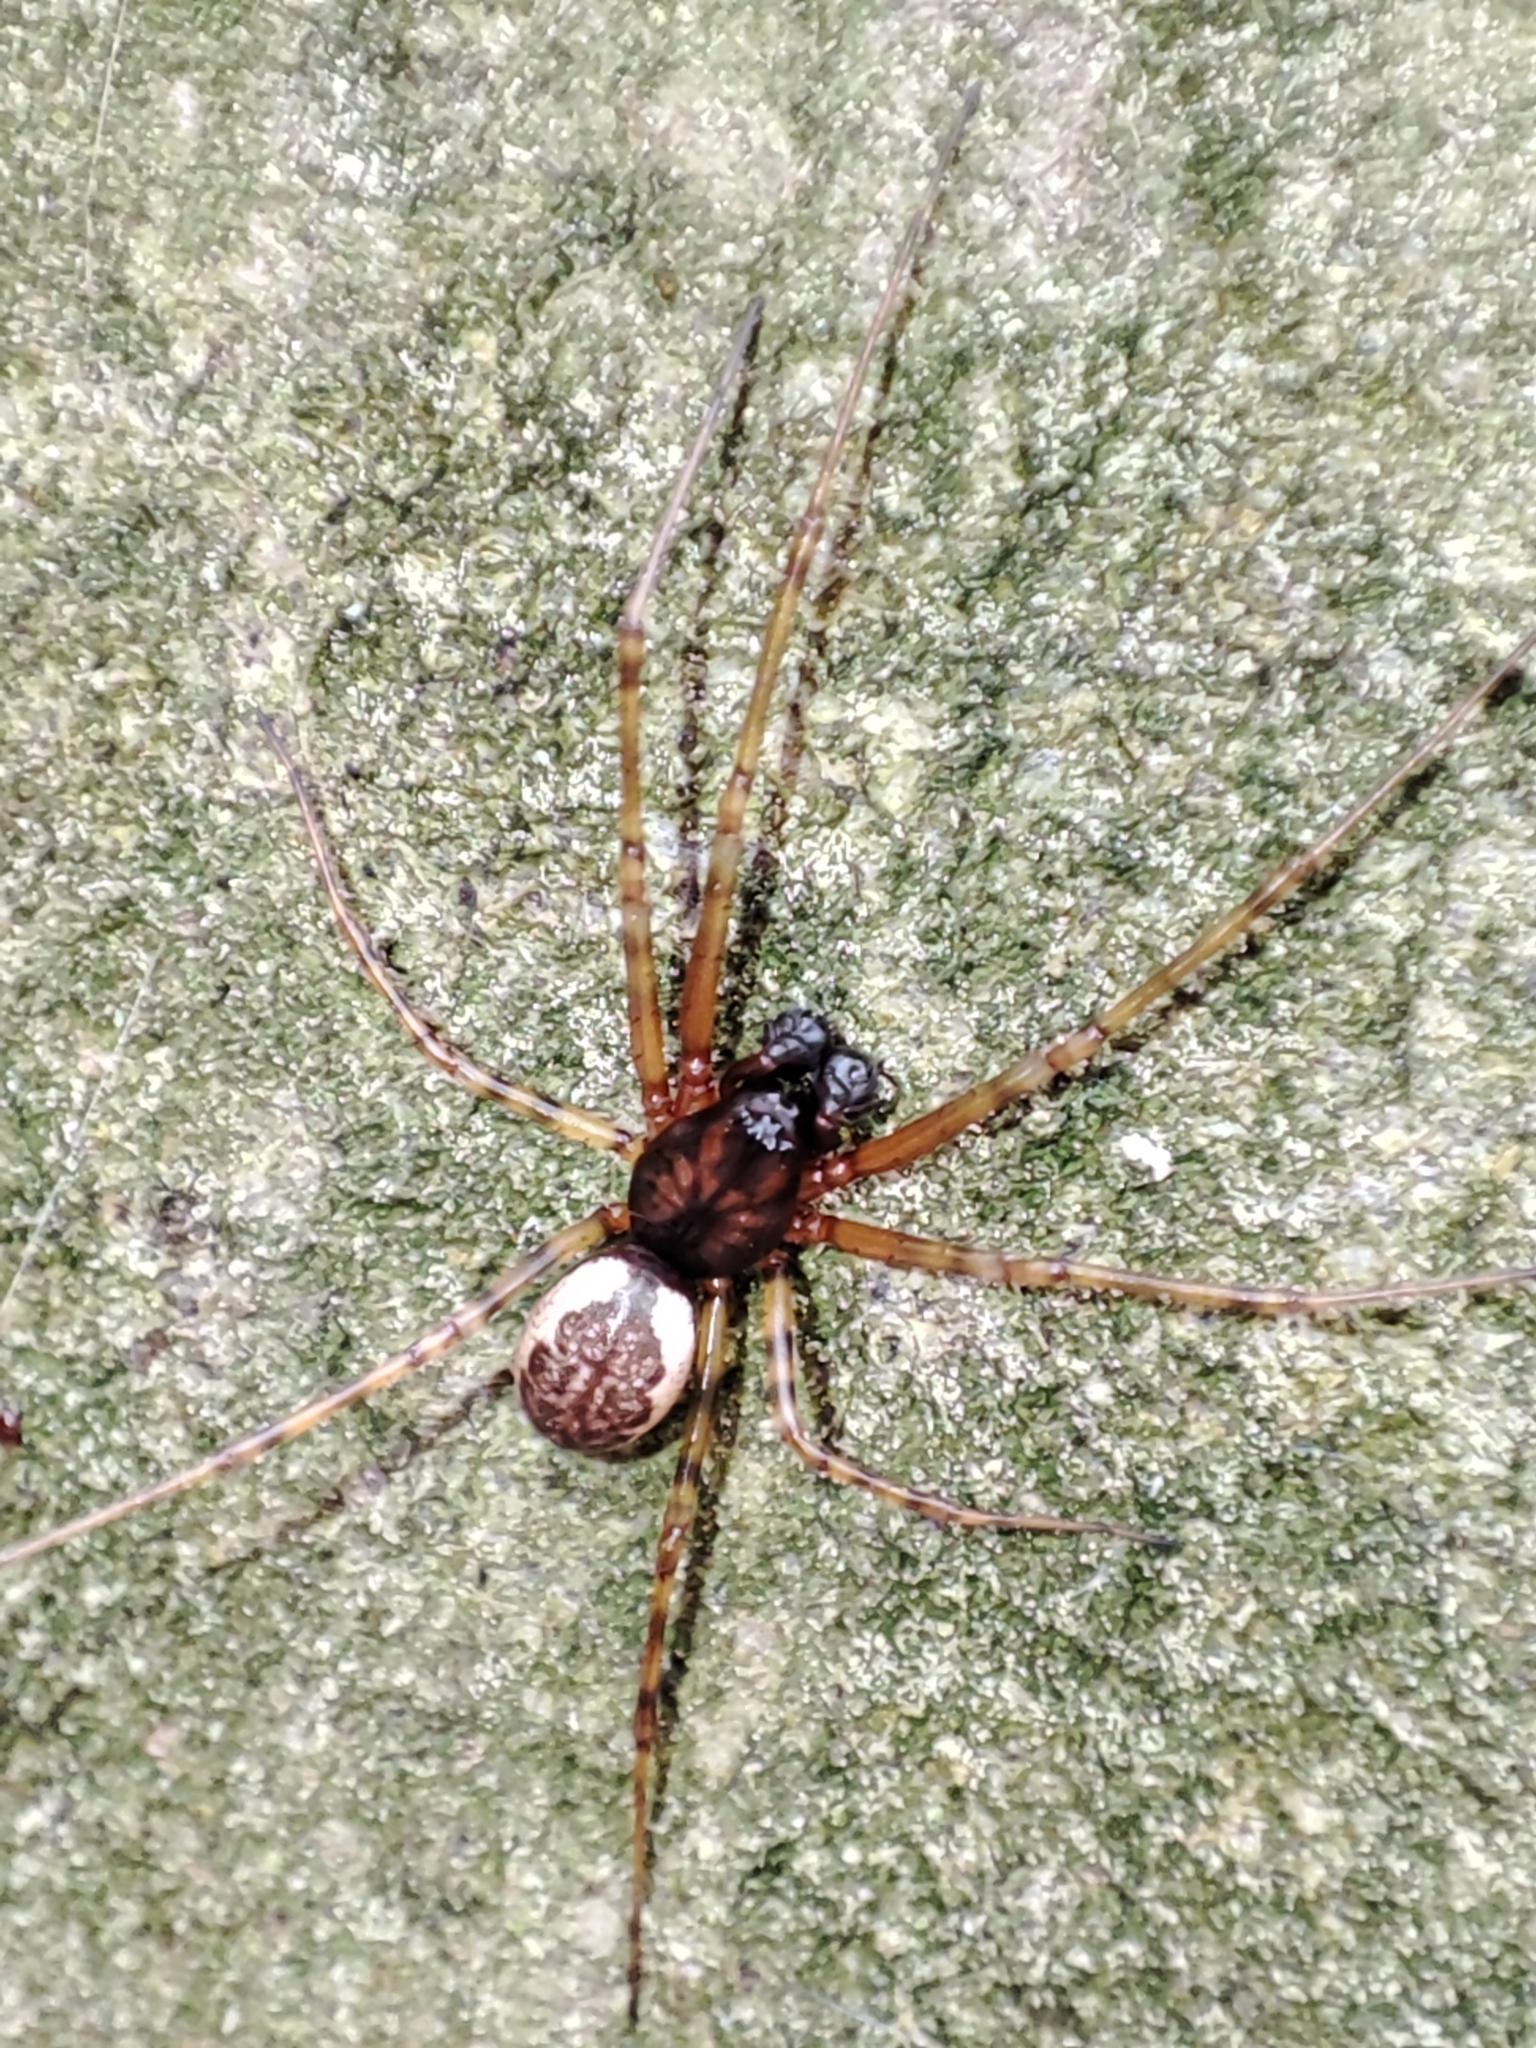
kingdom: Animalia
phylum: Arthropoda
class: Arachnida
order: Araneae
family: Linyphiidae
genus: Neriene
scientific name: Neriene montana
